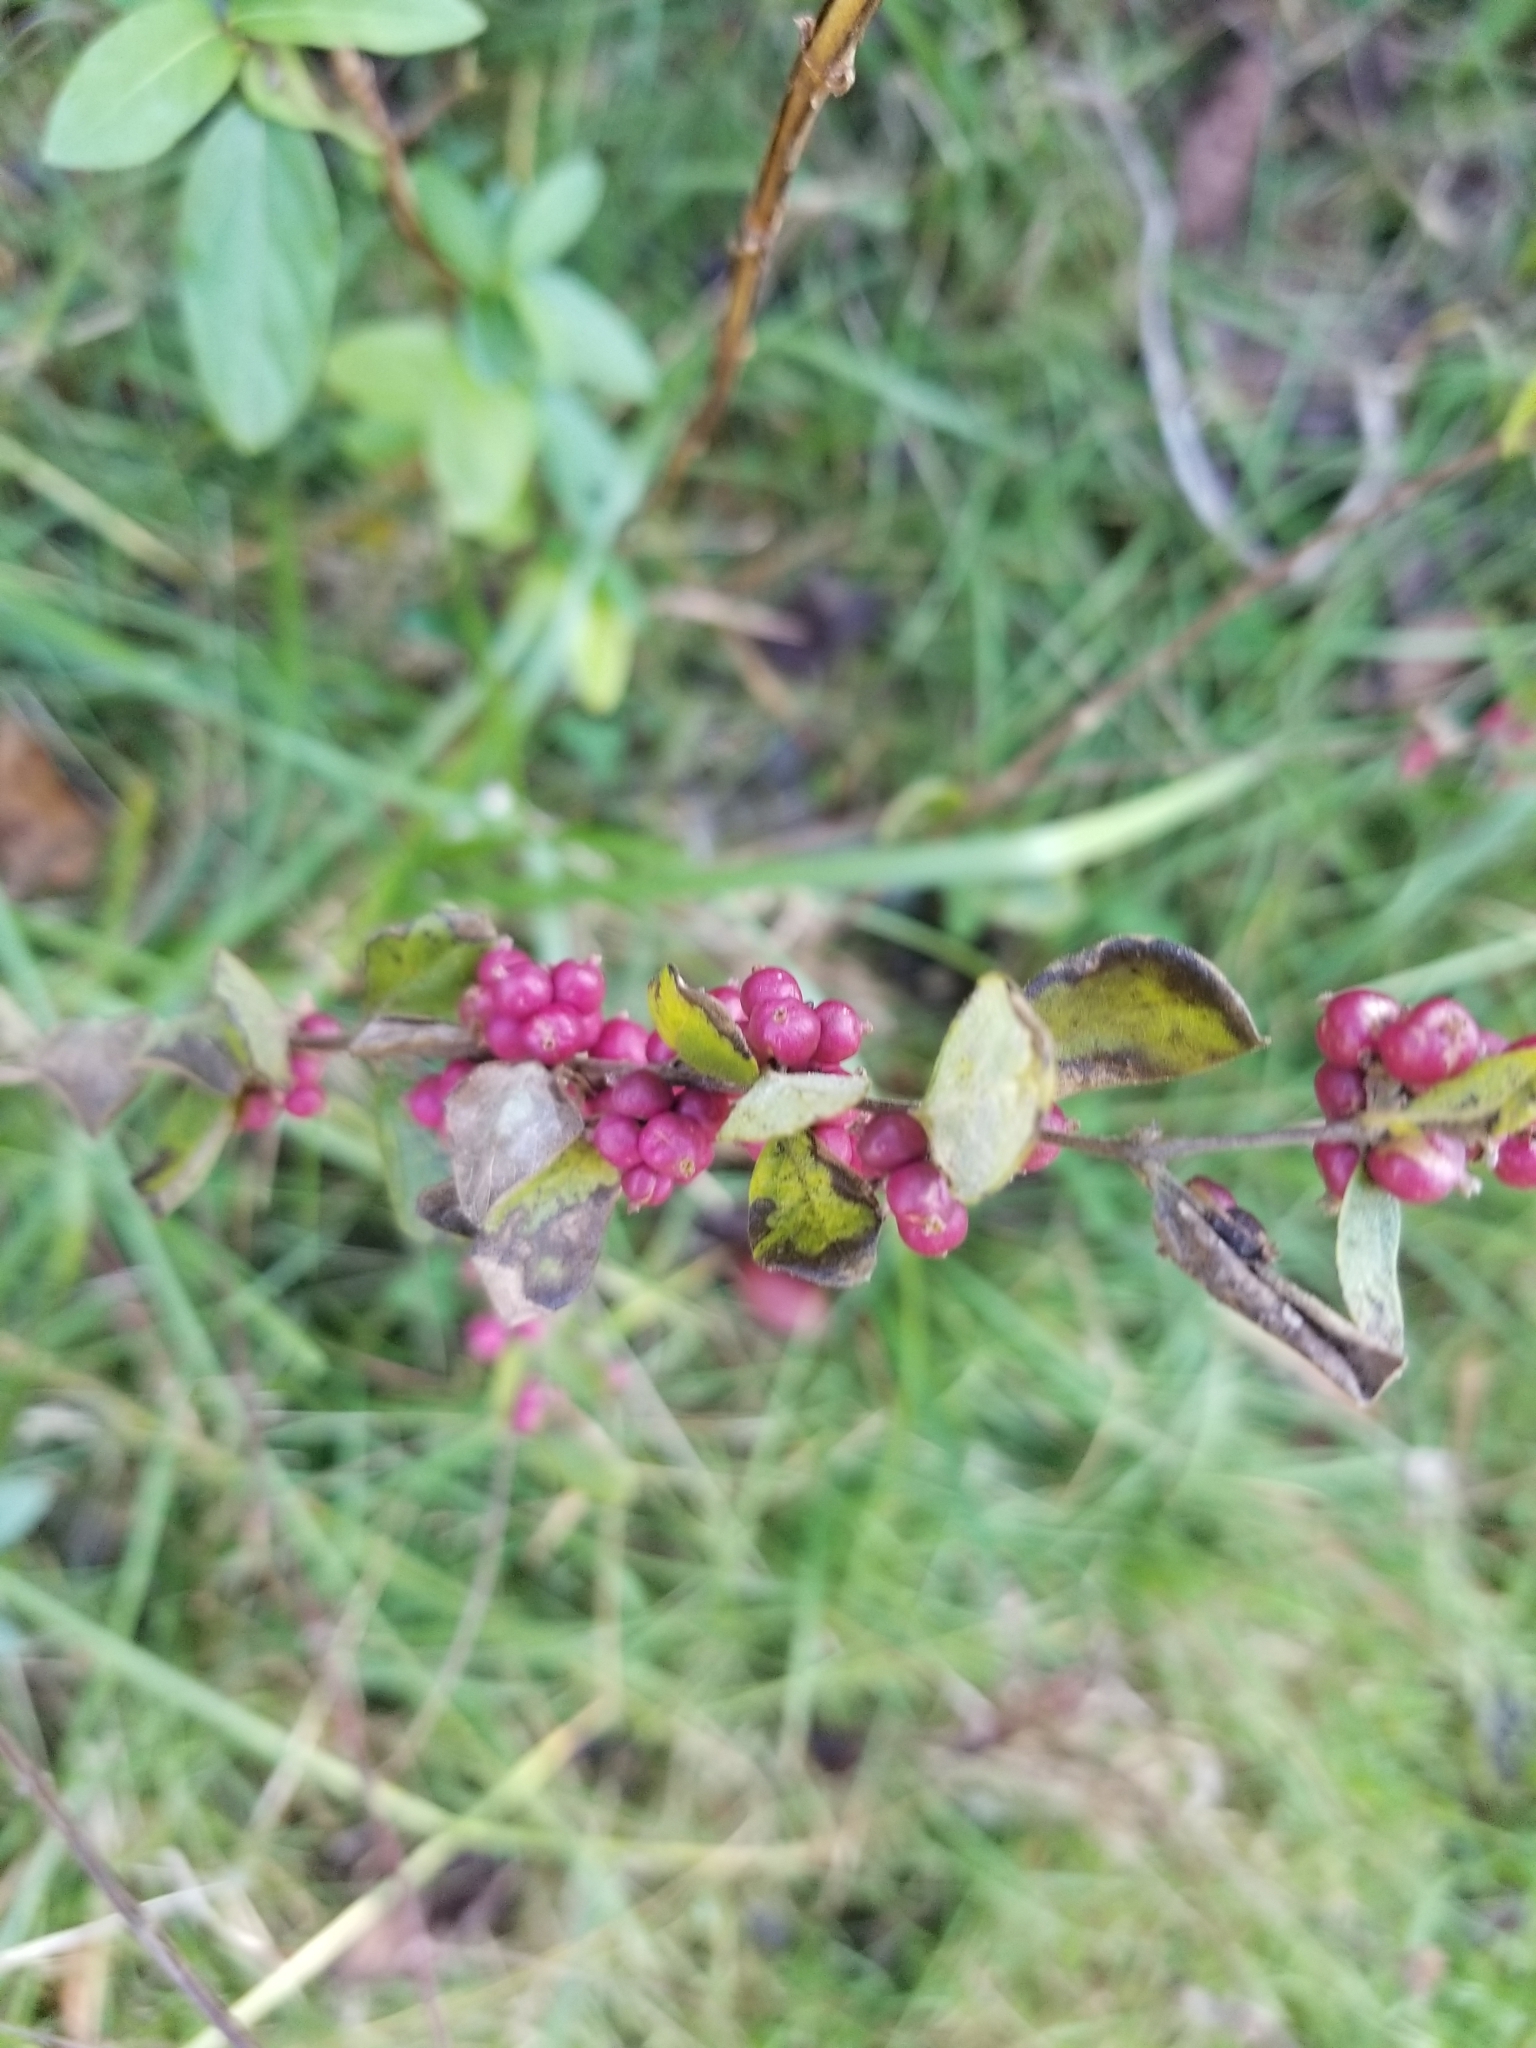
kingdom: Plantae
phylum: Tracheophyta
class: Magnoliopsida
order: Dipsacales
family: Caprifoliaceae
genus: Symphoricarpos
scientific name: Symphoricarpos orbiculatus
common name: Coralberry
